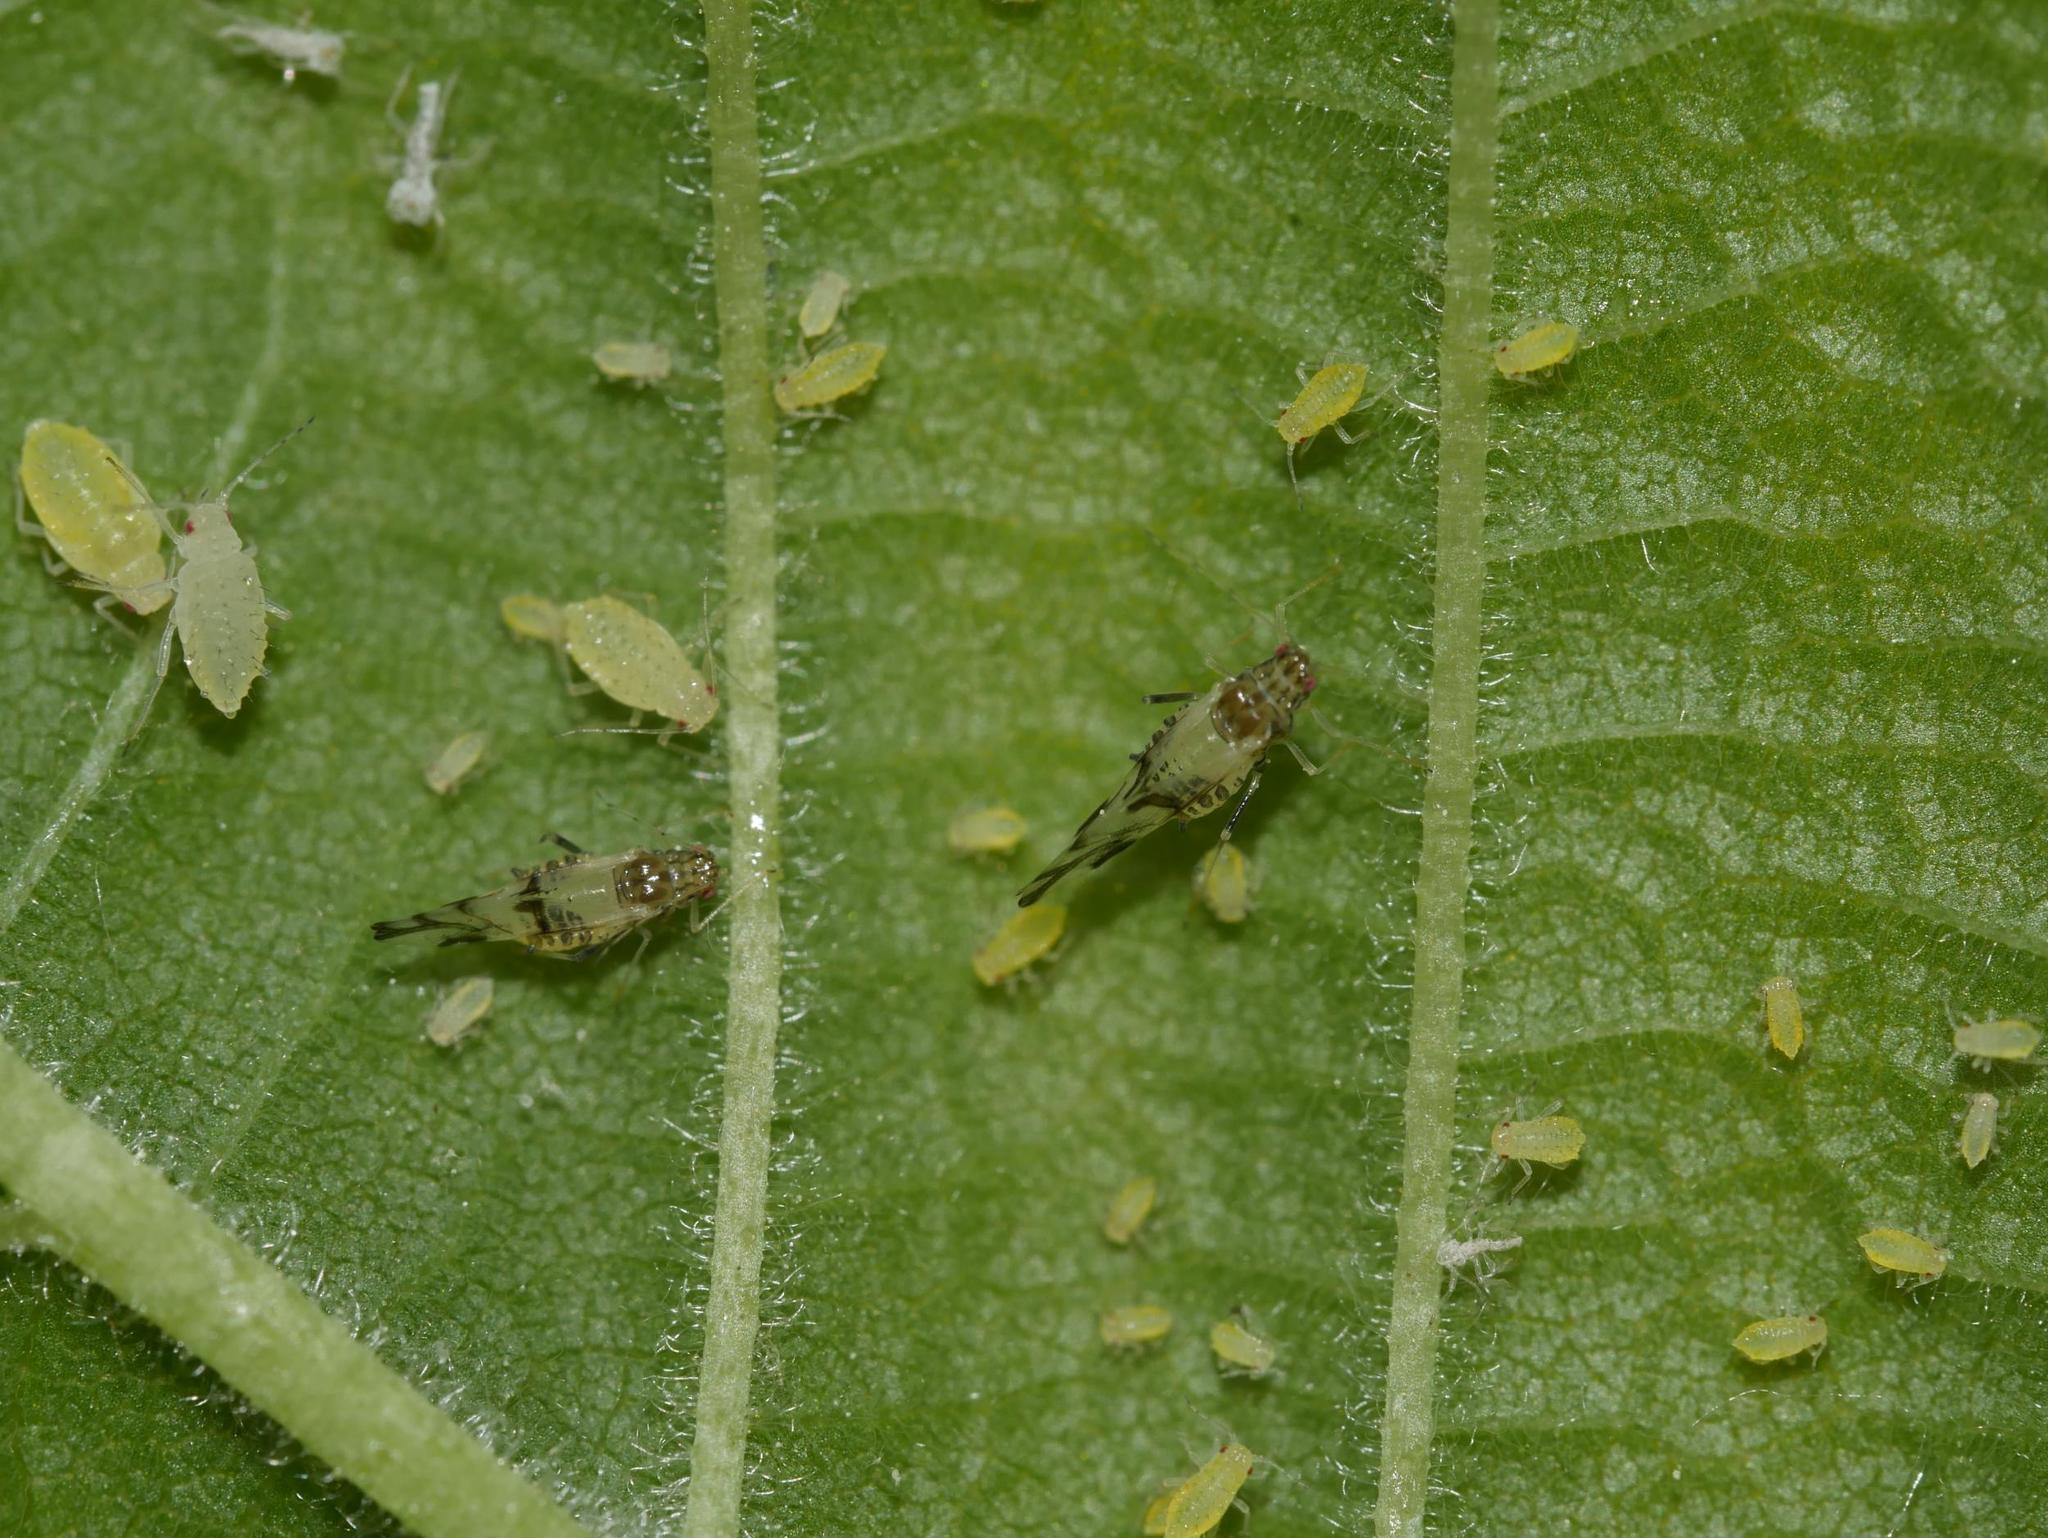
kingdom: Animalia
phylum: Arthropoda
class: Insecta
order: Hemiptera
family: Aphididae
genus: Tinocallis
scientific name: Tinocallis platani
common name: Elm aphid
